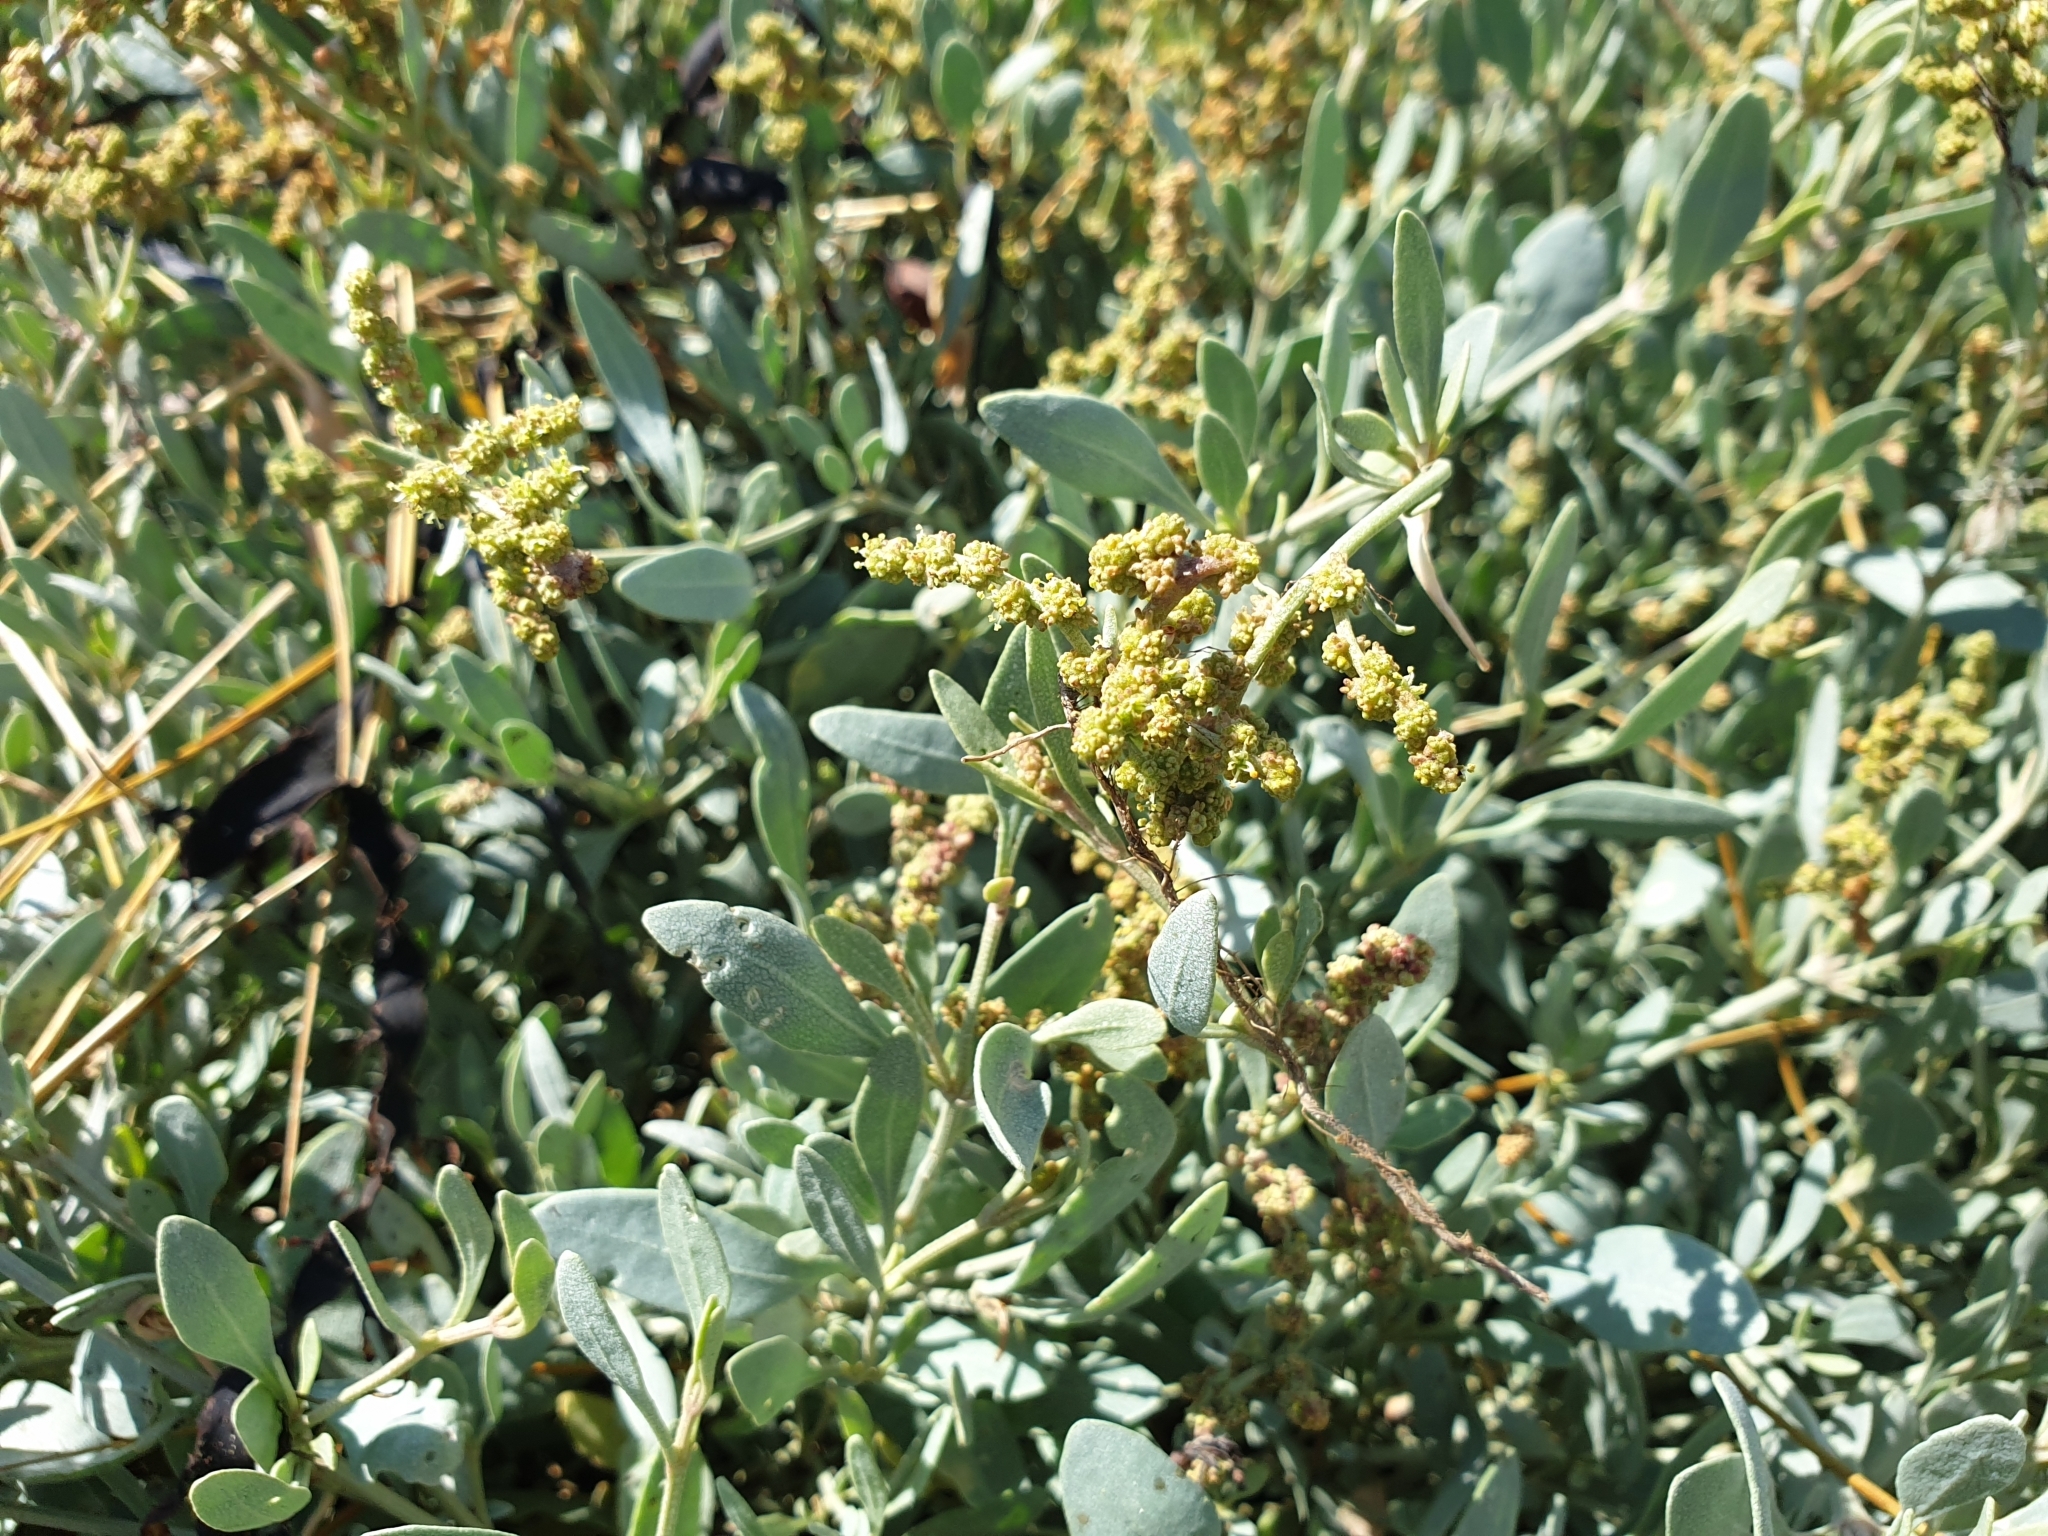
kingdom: Plantae
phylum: Tracheophyta
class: Magnoliopsida
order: Caryophyllales
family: Amaranthaceae
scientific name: Amaranthaceae
